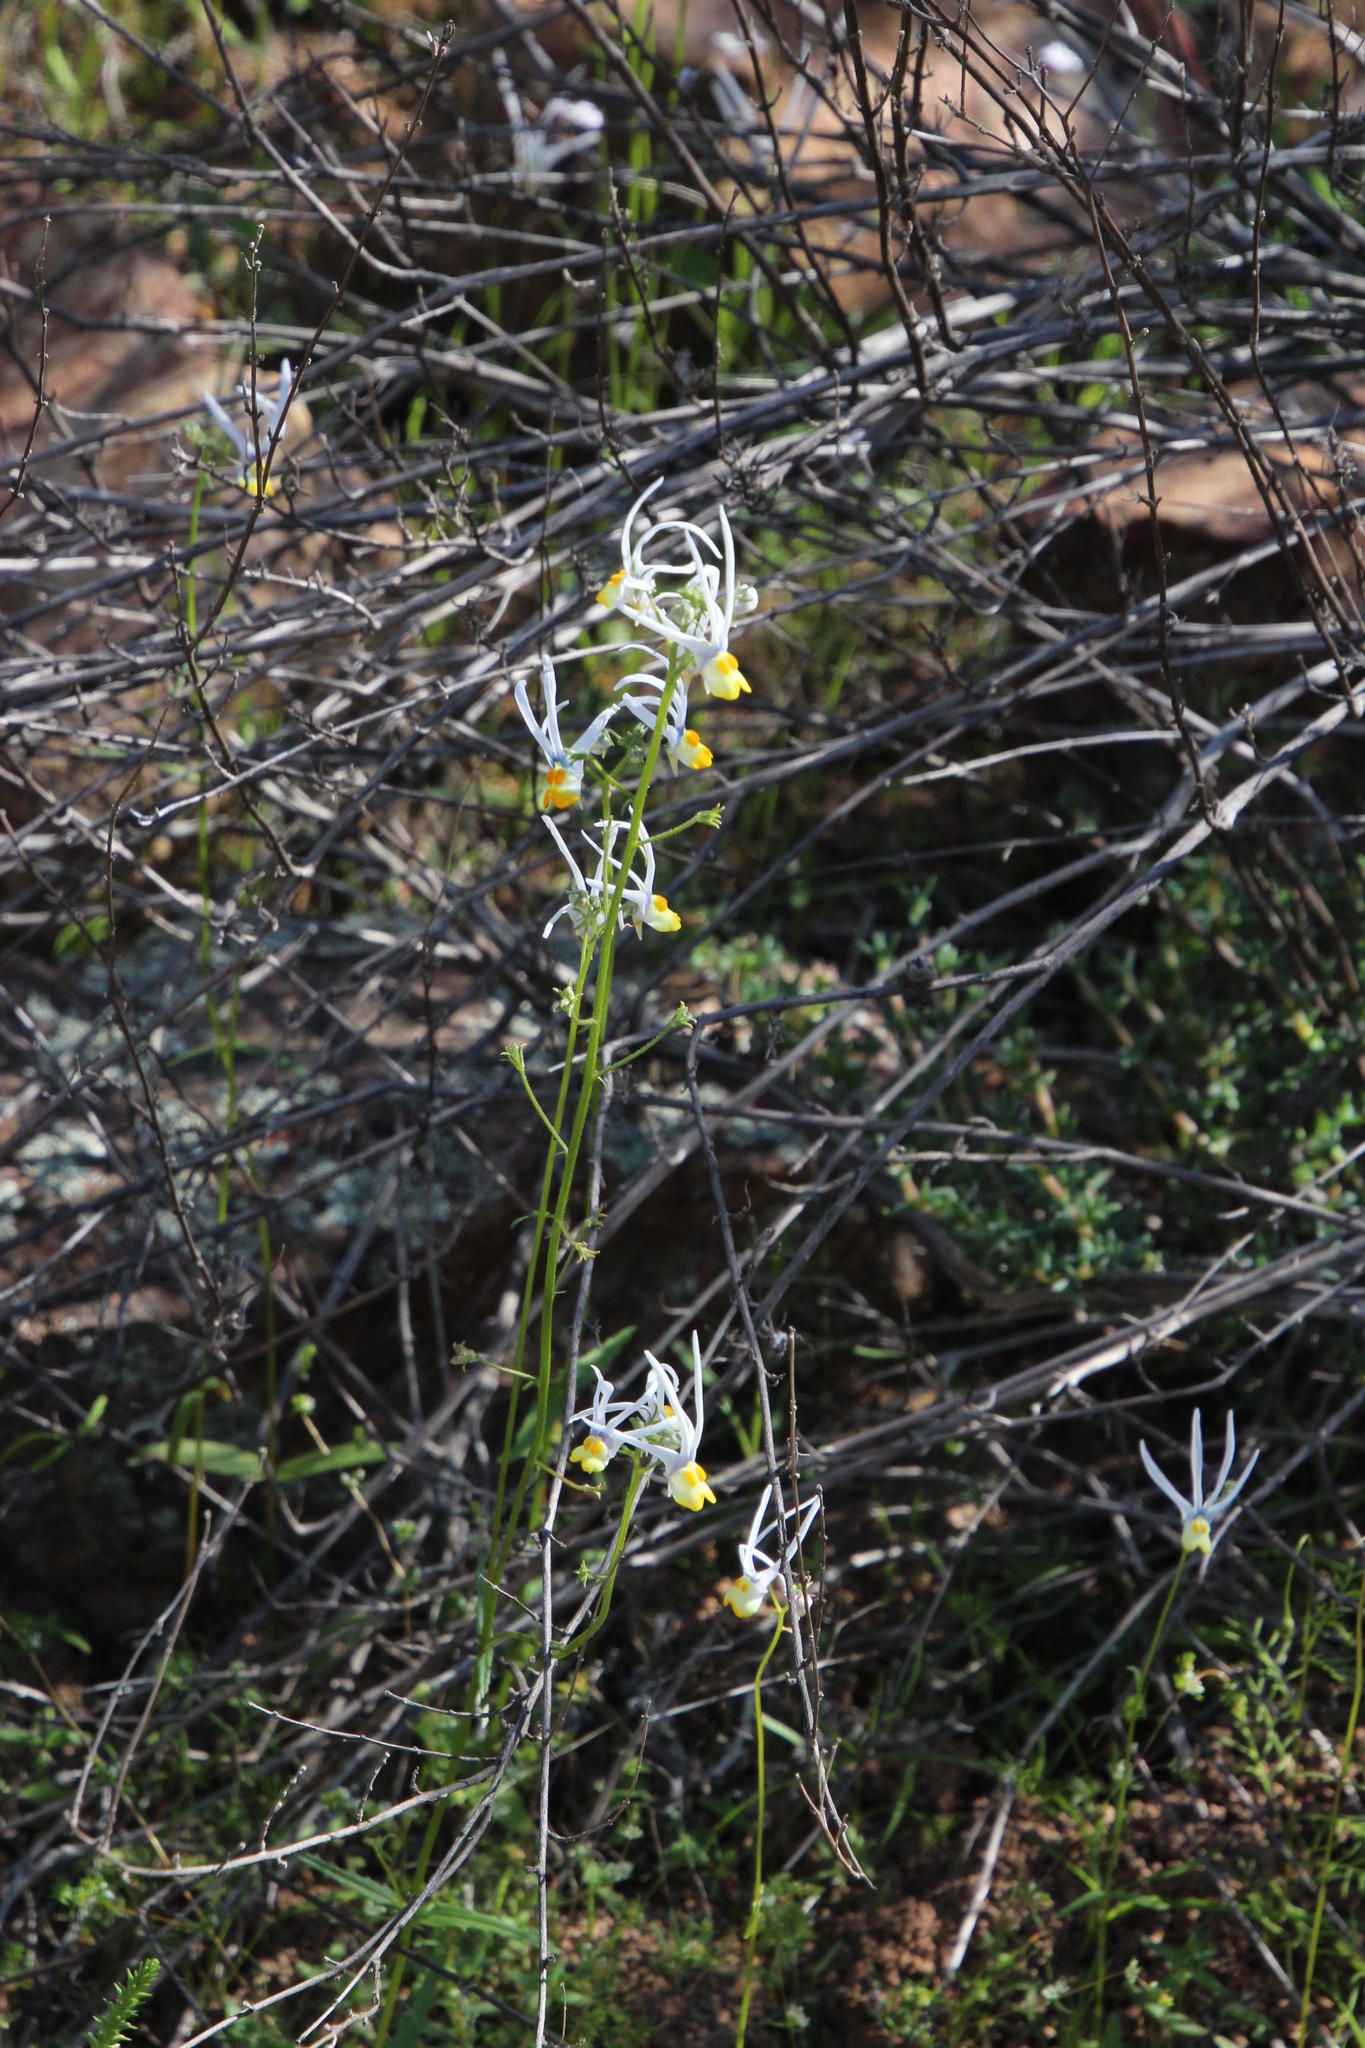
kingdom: Plantae
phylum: Tracheophyta
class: Magnoliopsida
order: Lamiales
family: Scrophulariaceae
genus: Nemesia
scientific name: Nemesia cheiranthus
